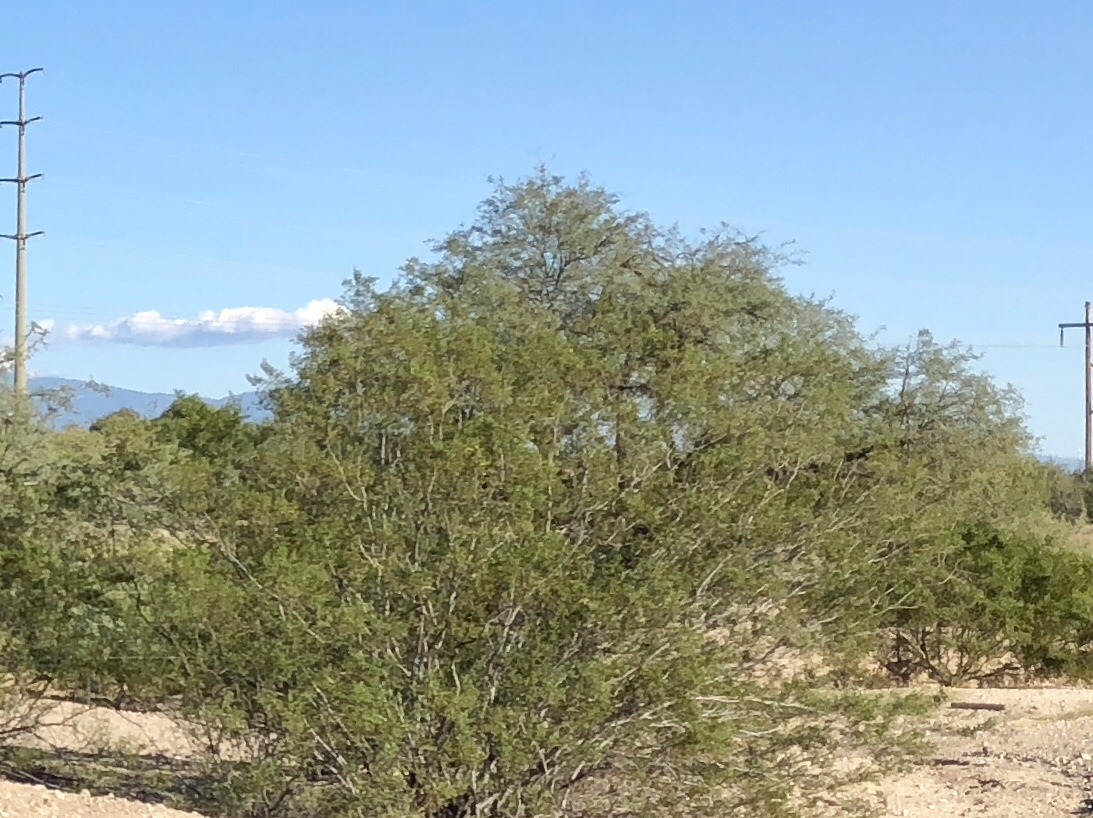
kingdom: Plantae
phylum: Tracheophyta
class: Magnoliopsida
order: Zygophyllales
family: Zygophyllaceae
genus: Larrea
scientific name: Larrea tridentata
